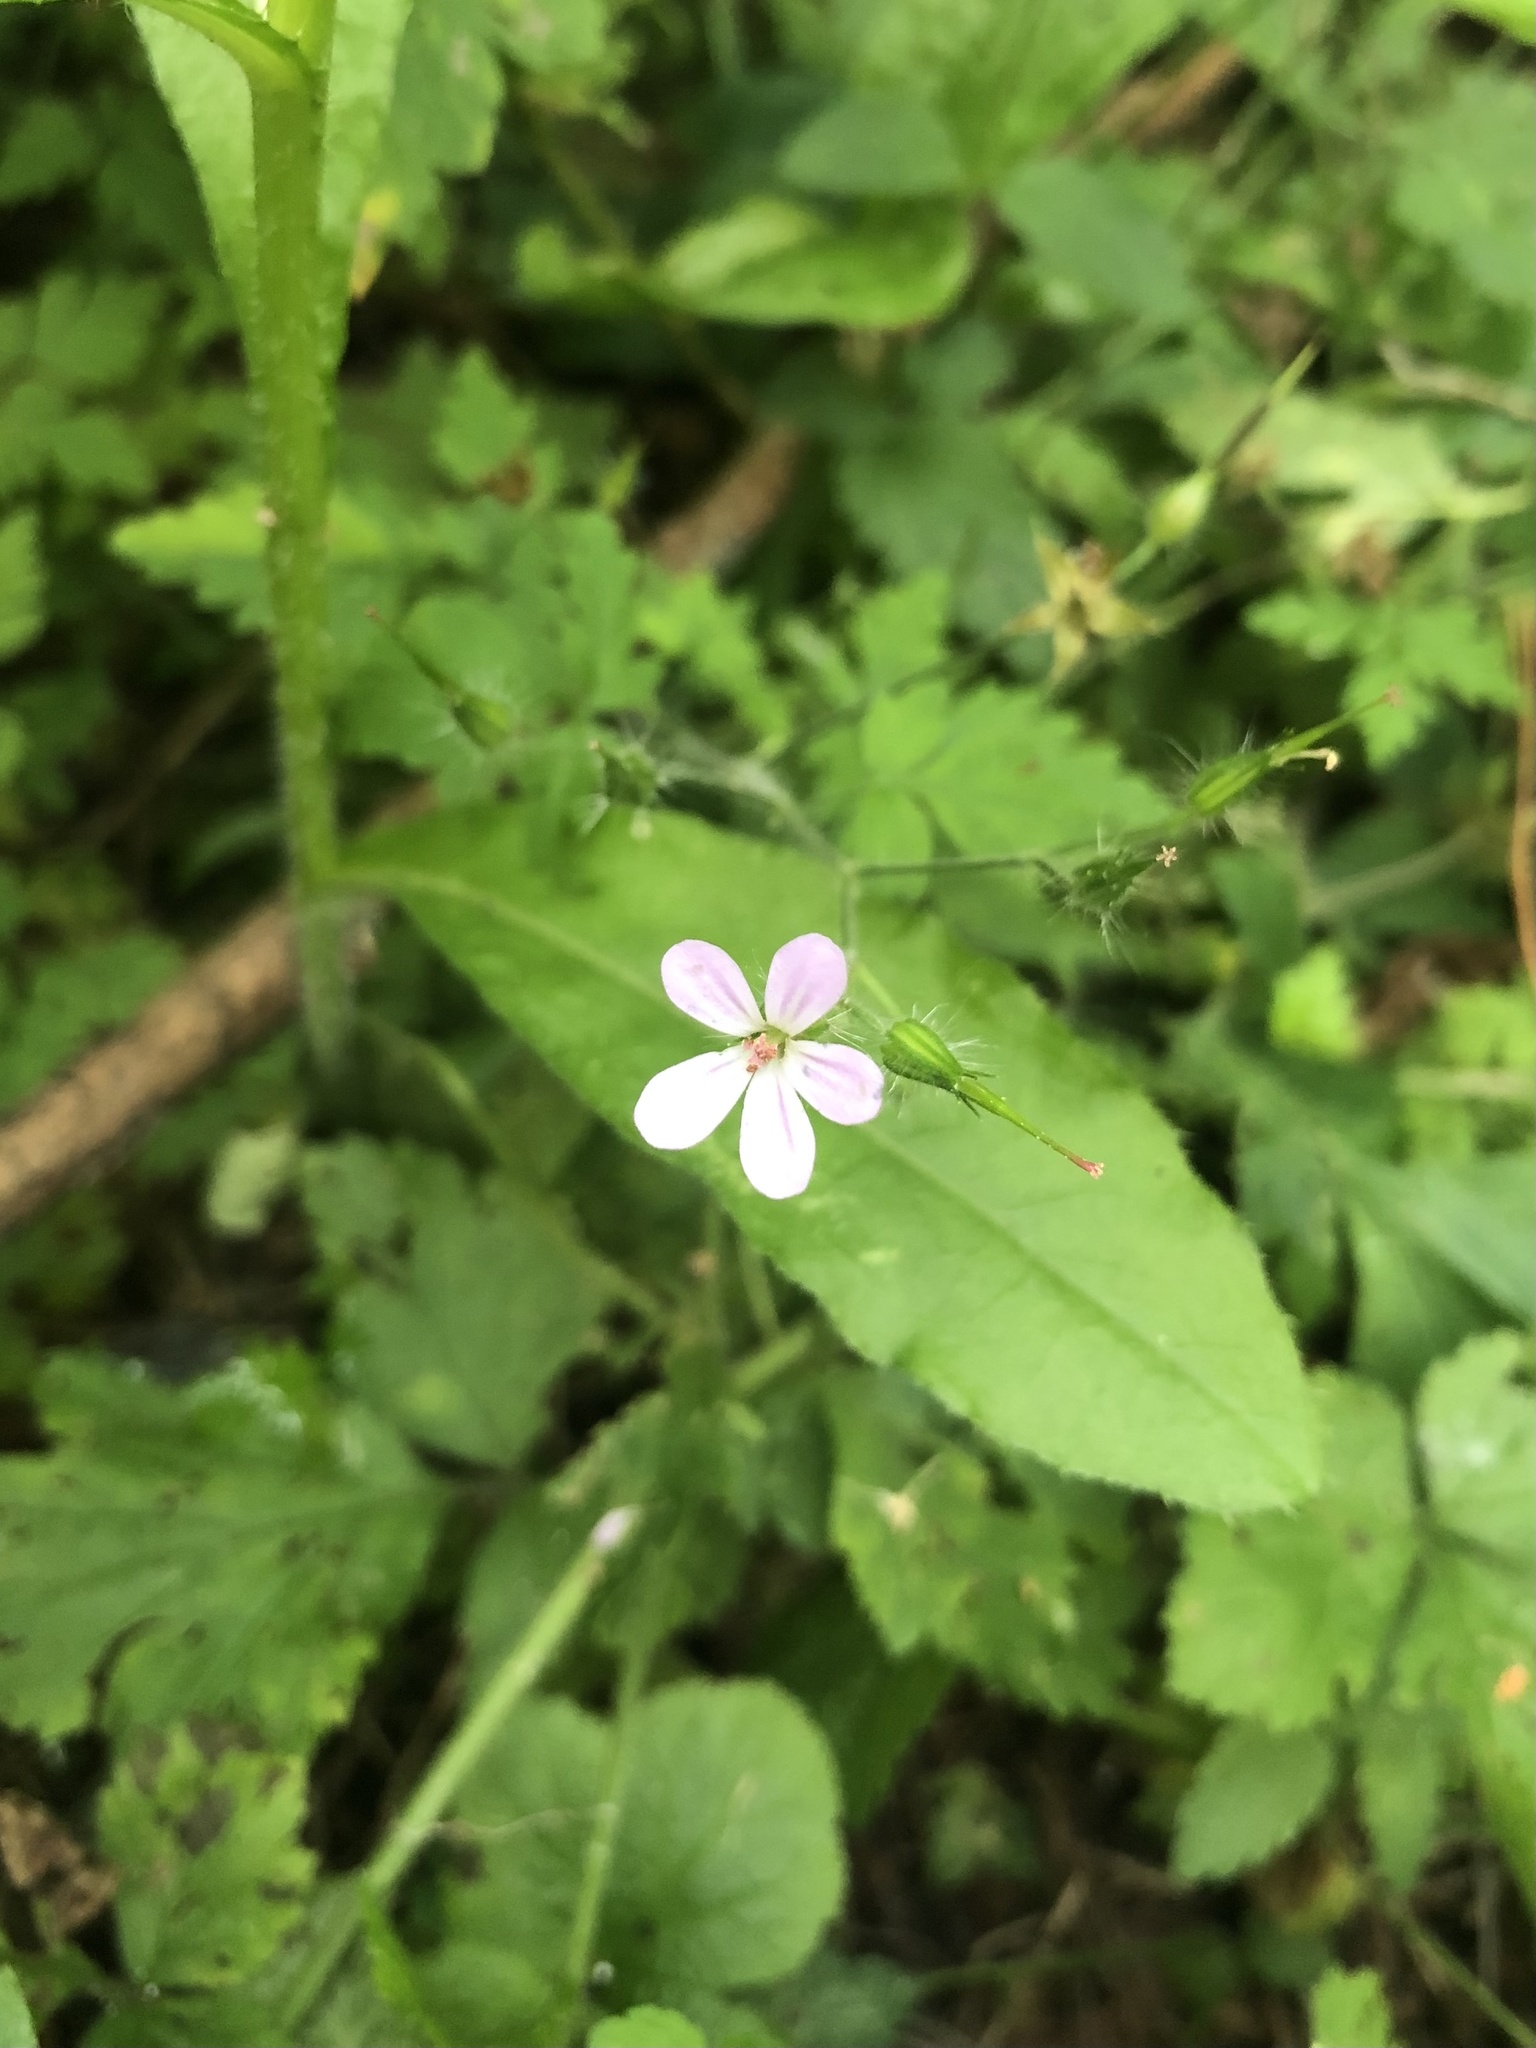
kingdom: Plantae
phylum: Tracheophyta
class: Magnoliopsida
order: Geraniales
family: Geraniaceae
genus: Geranium
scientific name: Geranium robertianum
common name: Herb-robert
